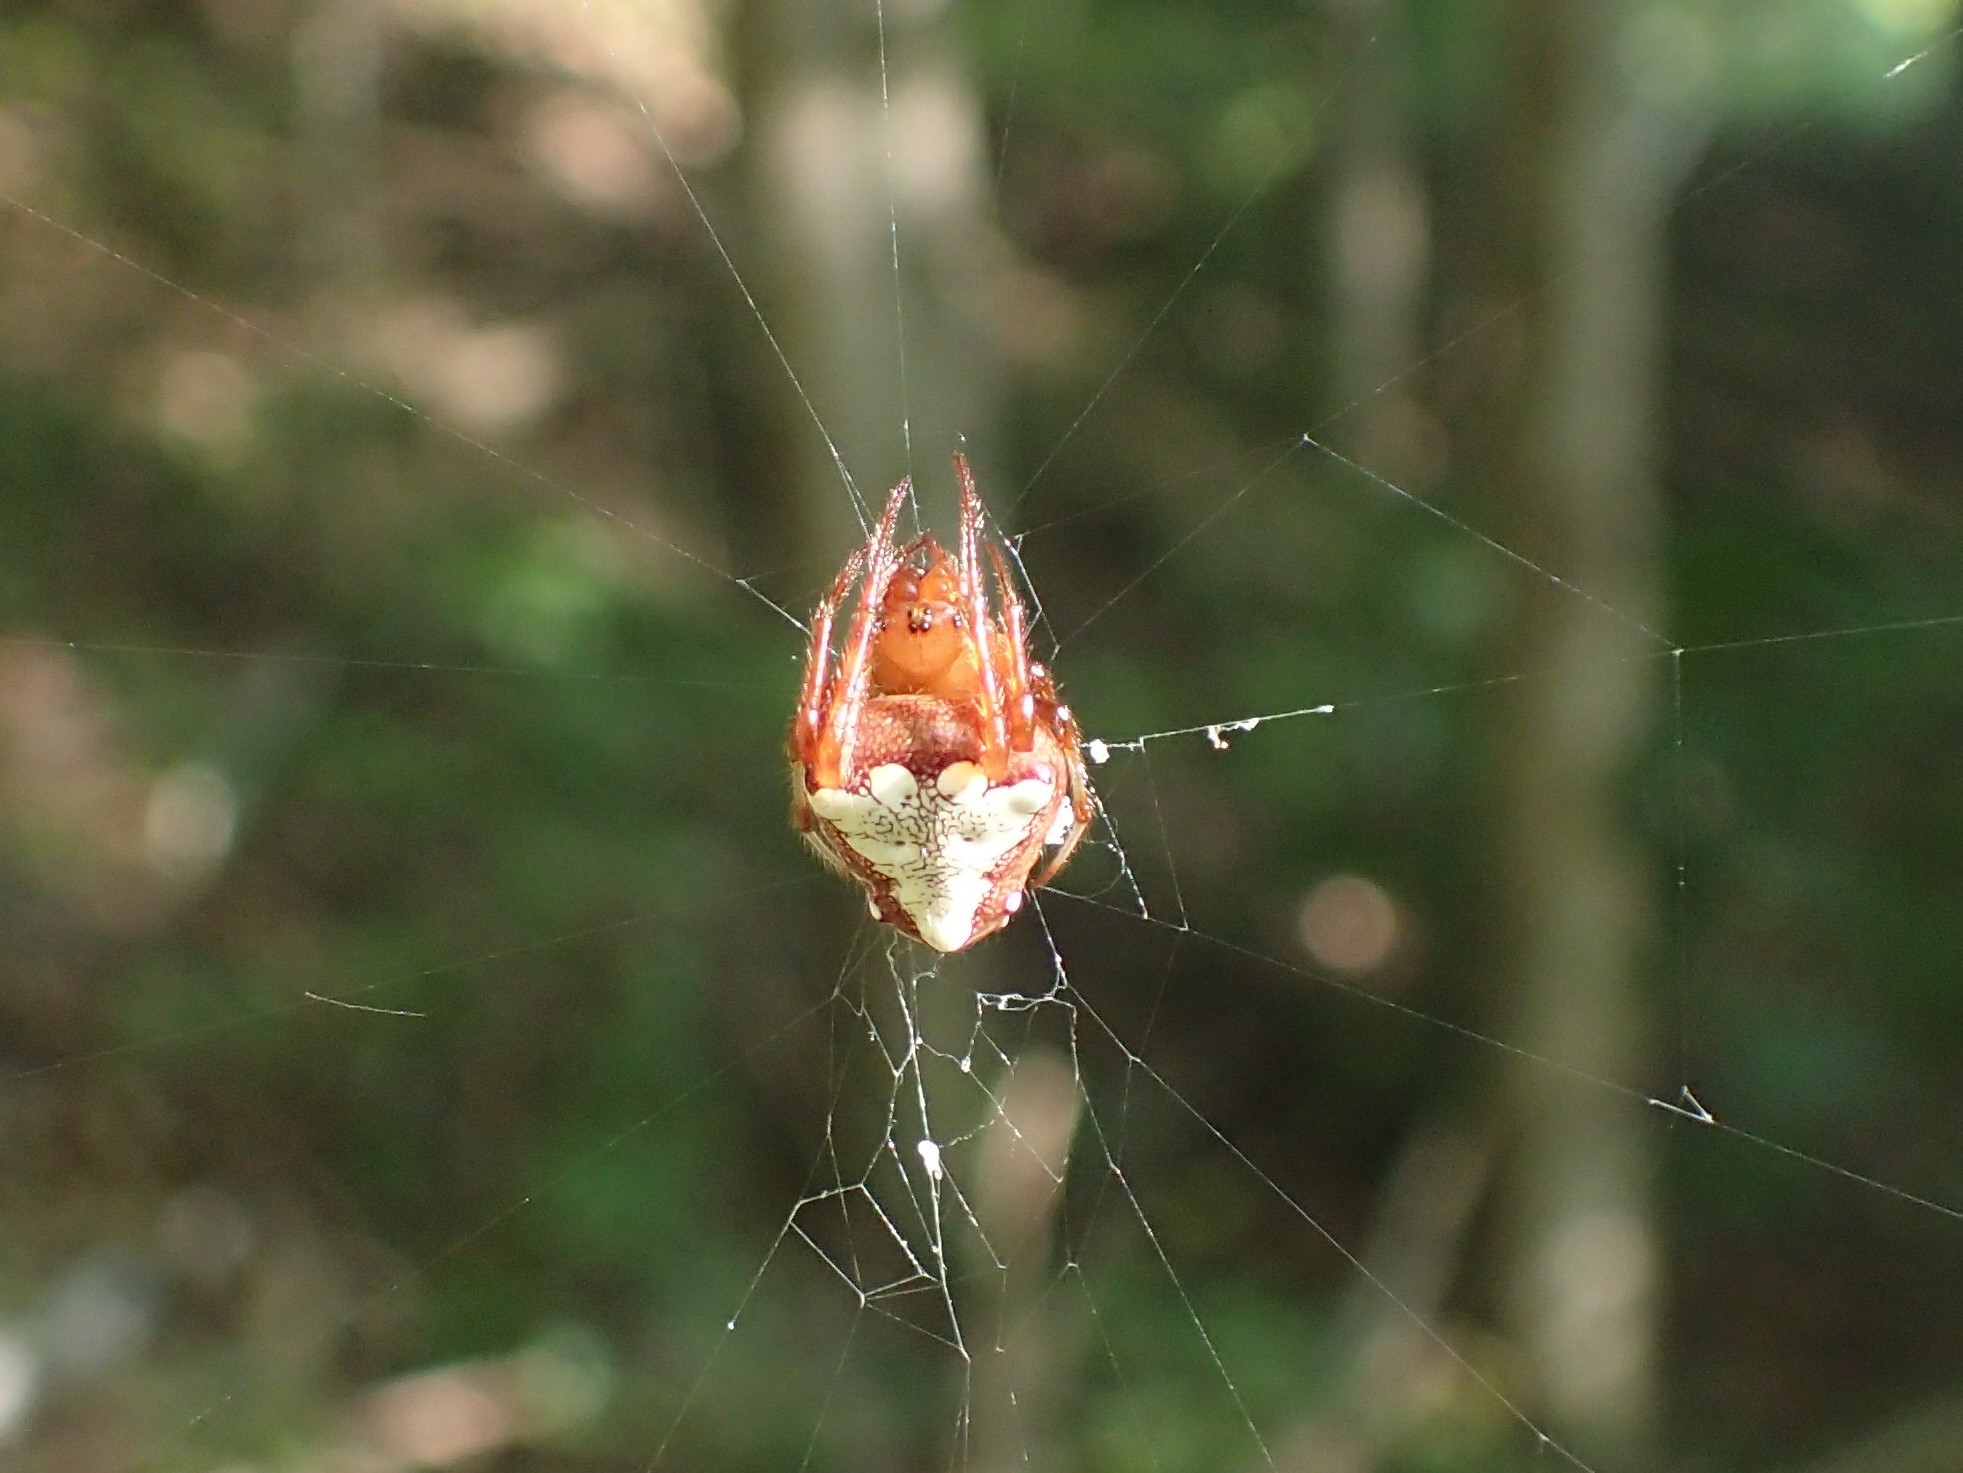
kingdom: Animalia
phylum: Arthropoda
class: Arachnida
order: Araneae
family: Araneidae
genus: Verrucosa
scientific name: Verrucosa arenata
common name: Orb weavers
